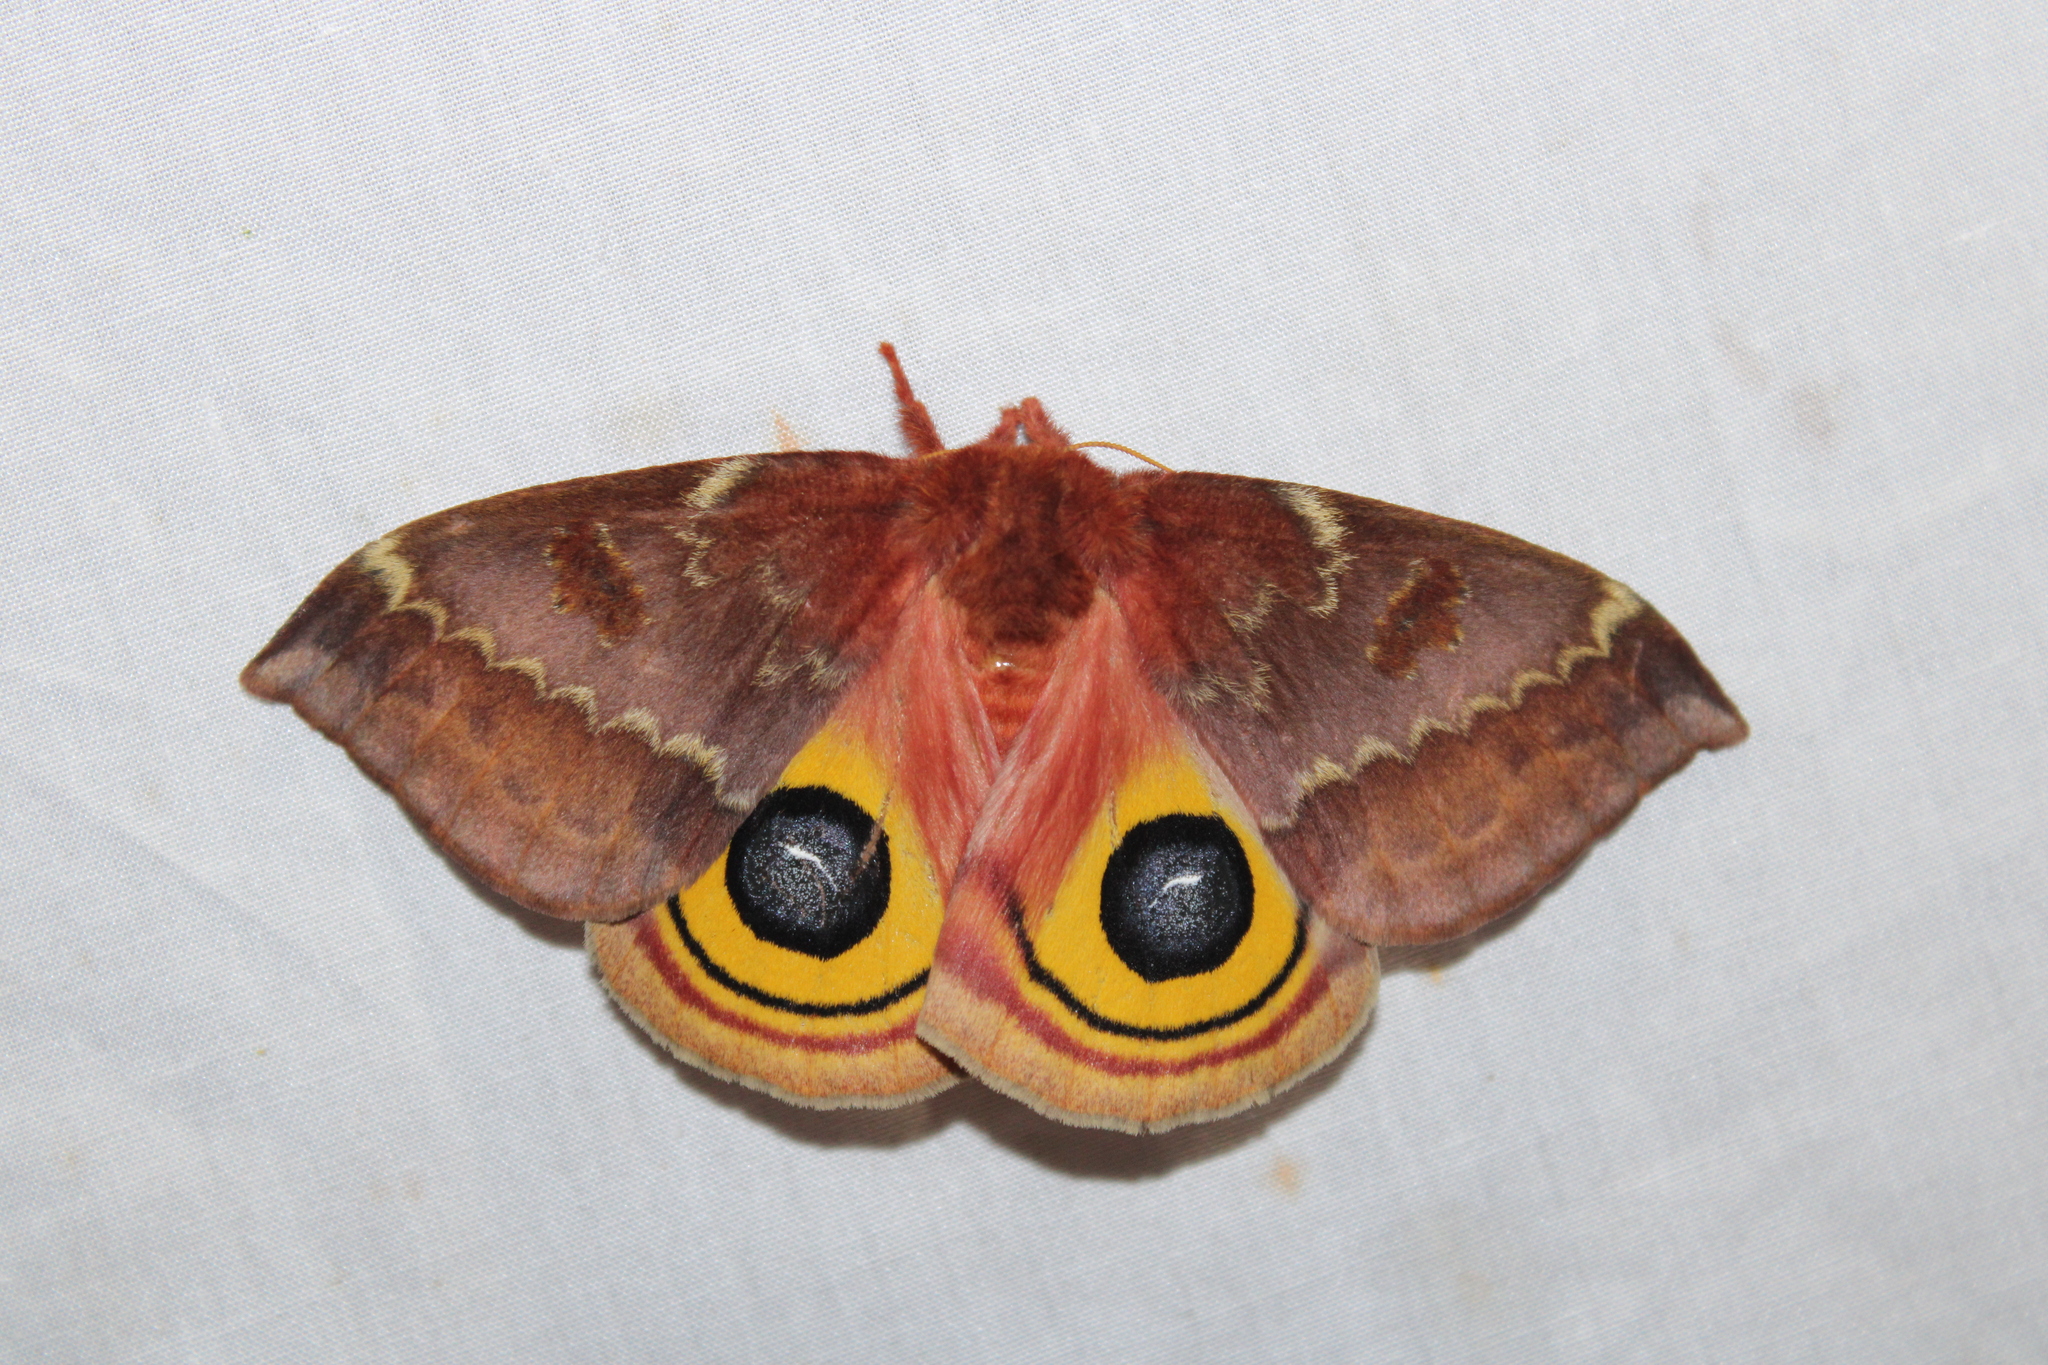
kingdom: Animalia
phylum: Arthropoda
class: Insecta
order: Lepidoptera
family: Saturniidae
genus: Automeris
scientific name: Automeris io
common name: Io moth
